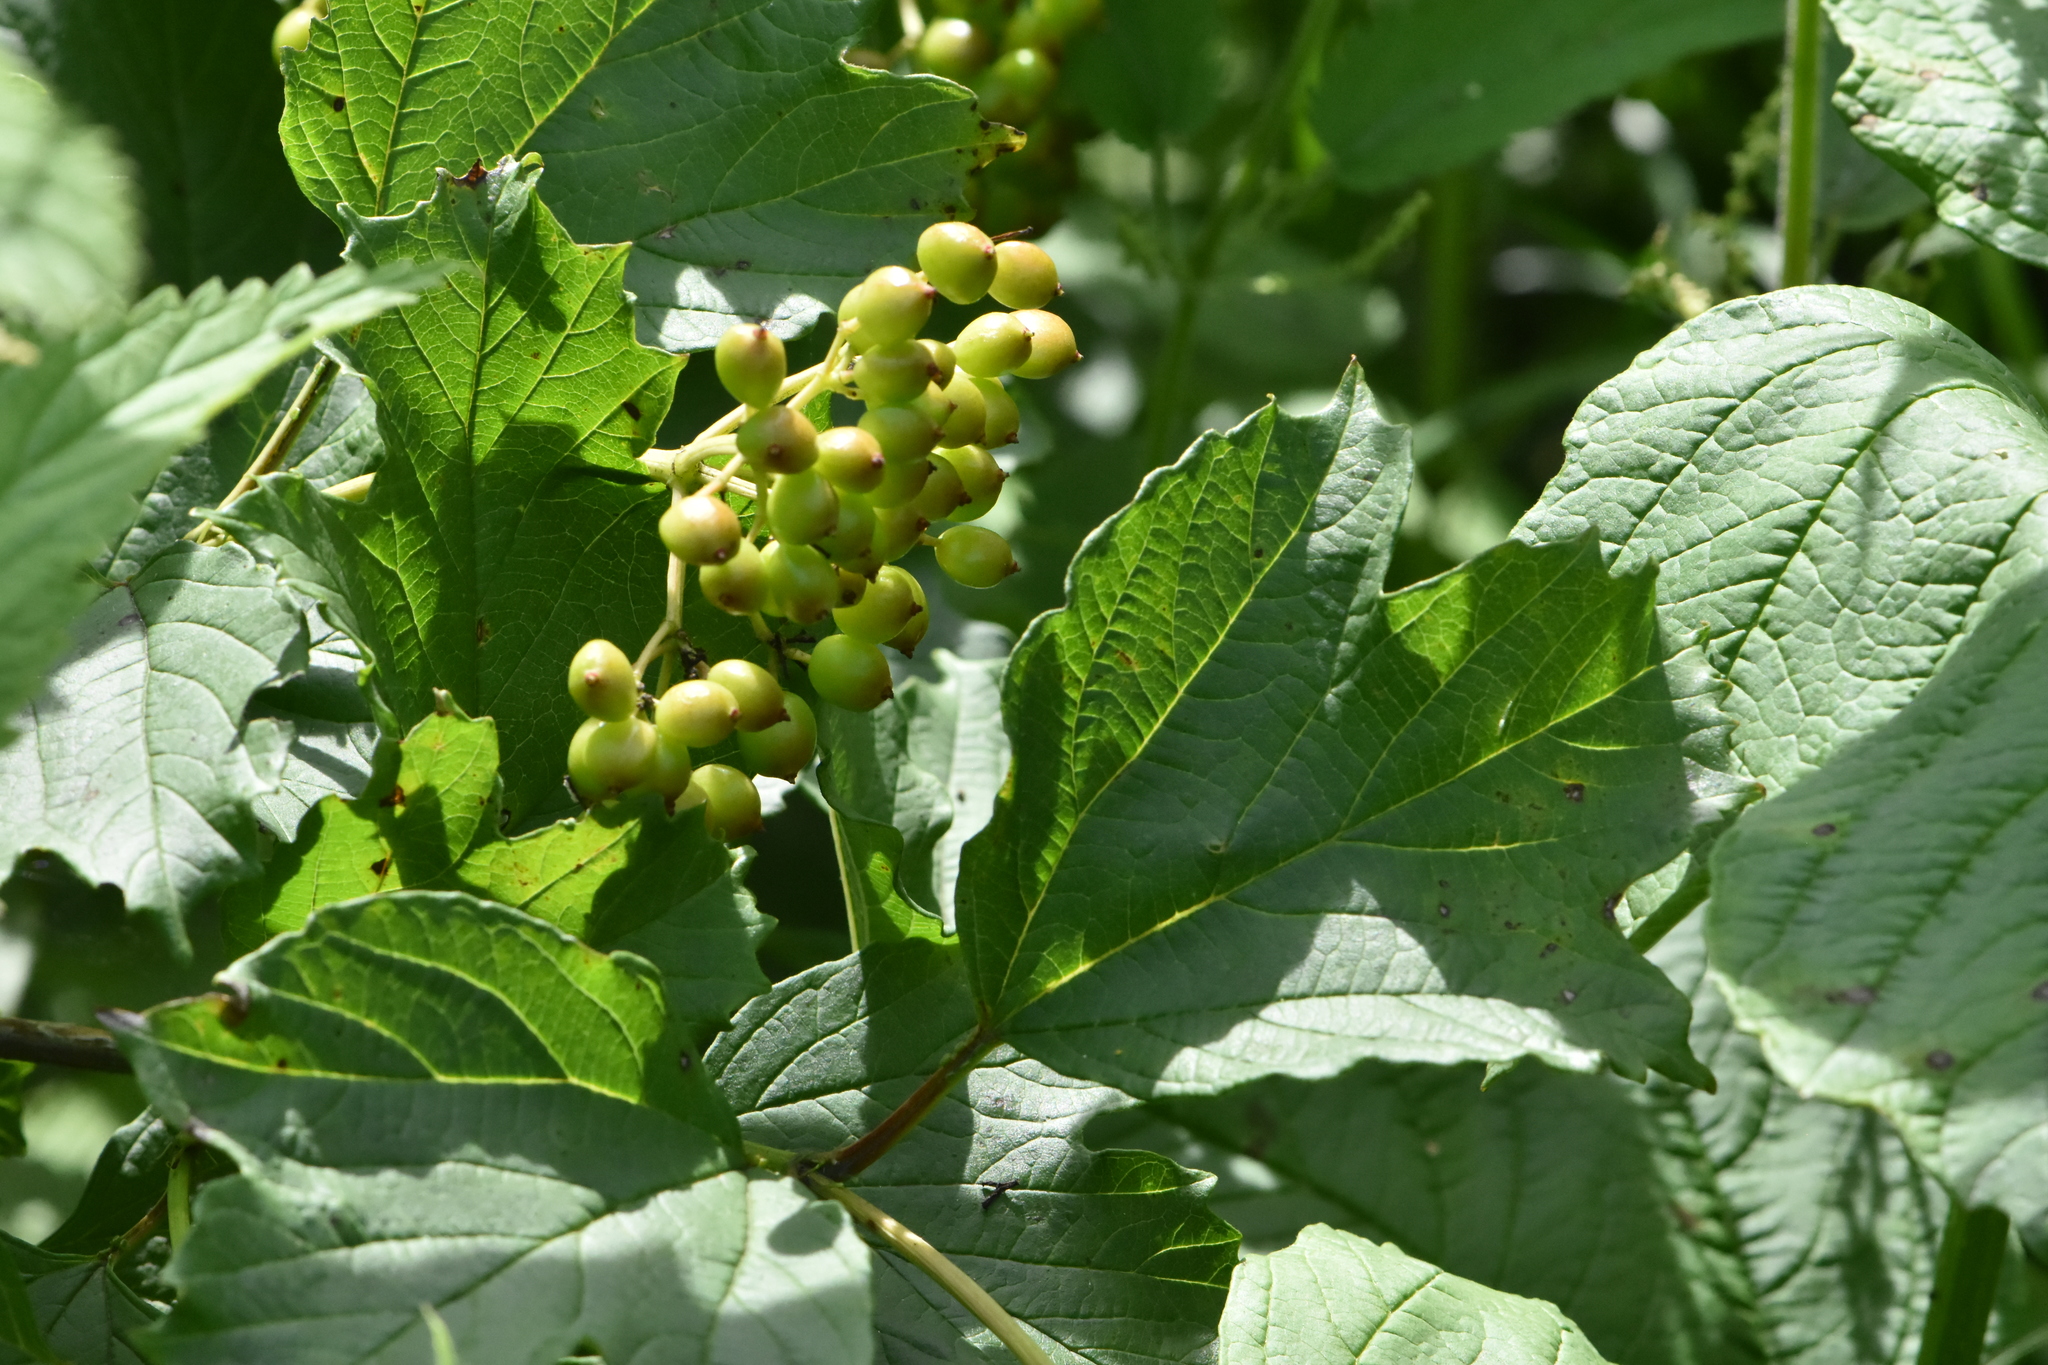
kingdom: Plantae
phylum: Tracheophyta
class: Magnoliopsida
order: Dipsacales
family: Viburnaceae
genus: Viburnum
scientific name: Viburnum opulus
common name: Guelder-rose
